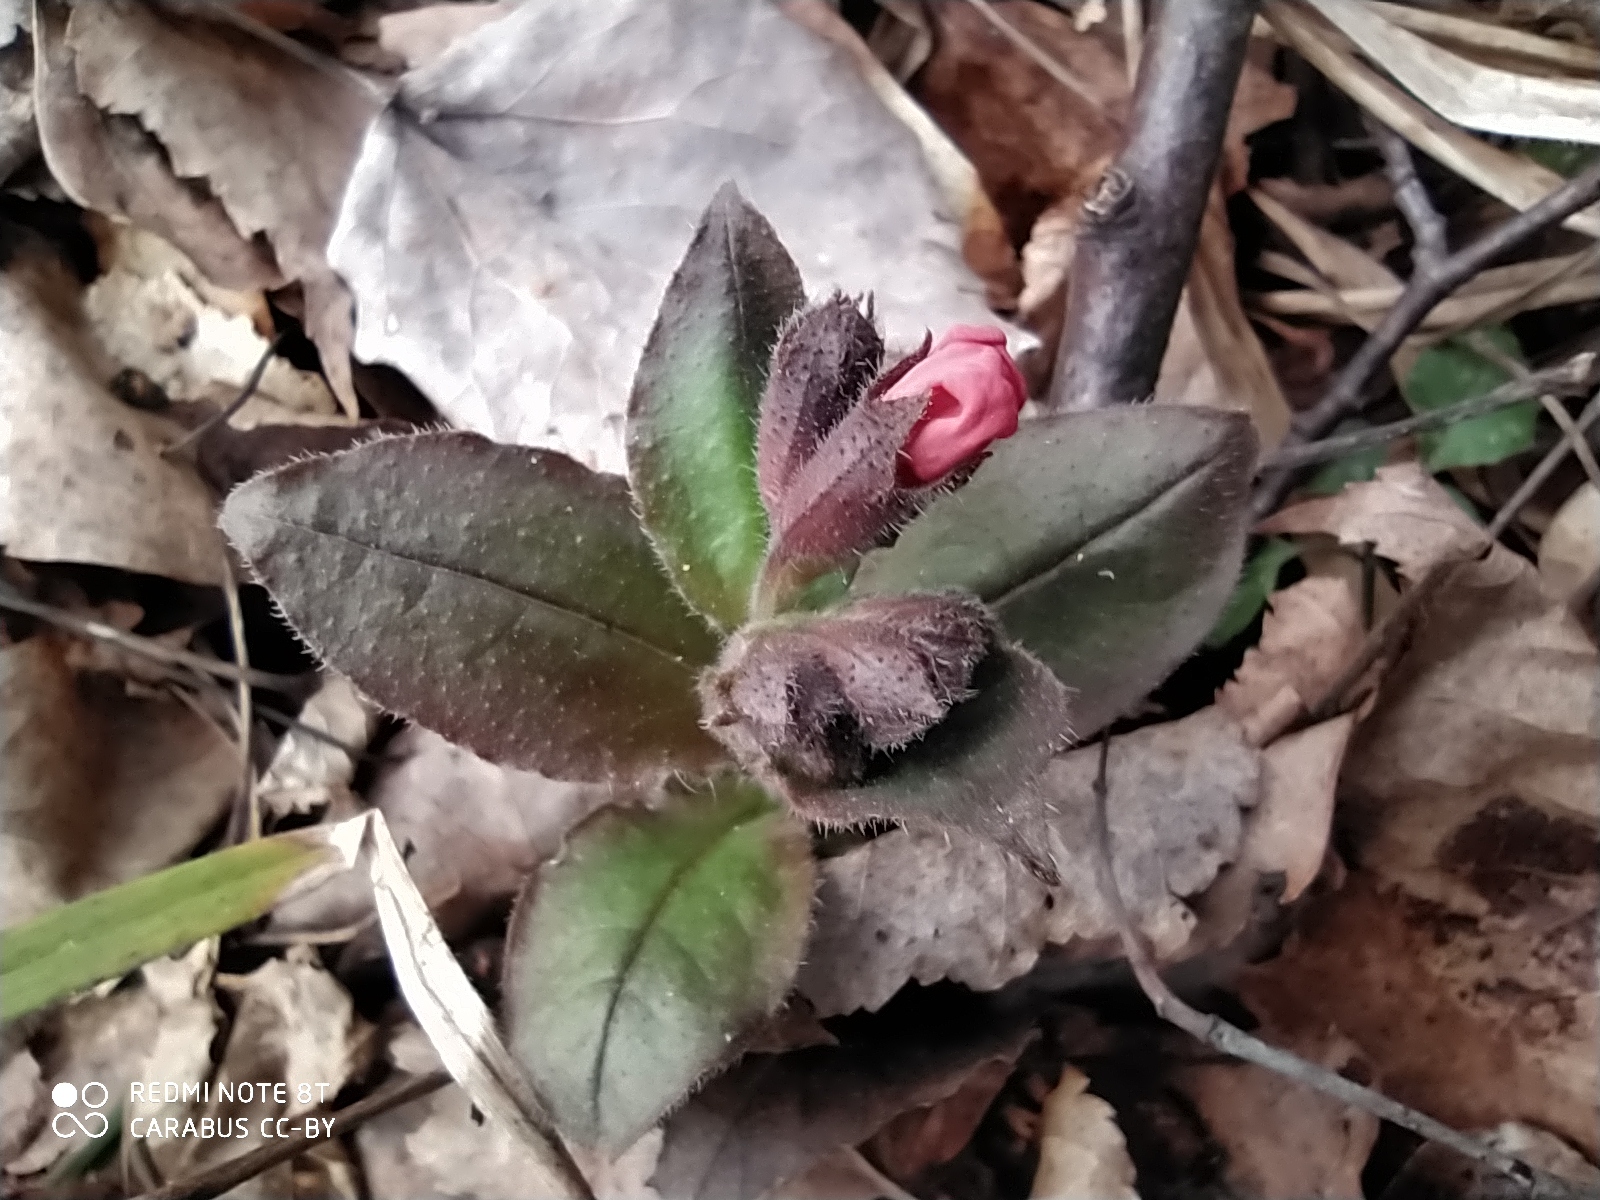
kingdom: Plantae
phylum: Tracheophyta
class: Magnoliopsida
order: Boraginales
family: Boraginaceae
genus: Pulmonaria
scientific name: Pulmonaria obscura
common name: Suffolk lungwort
